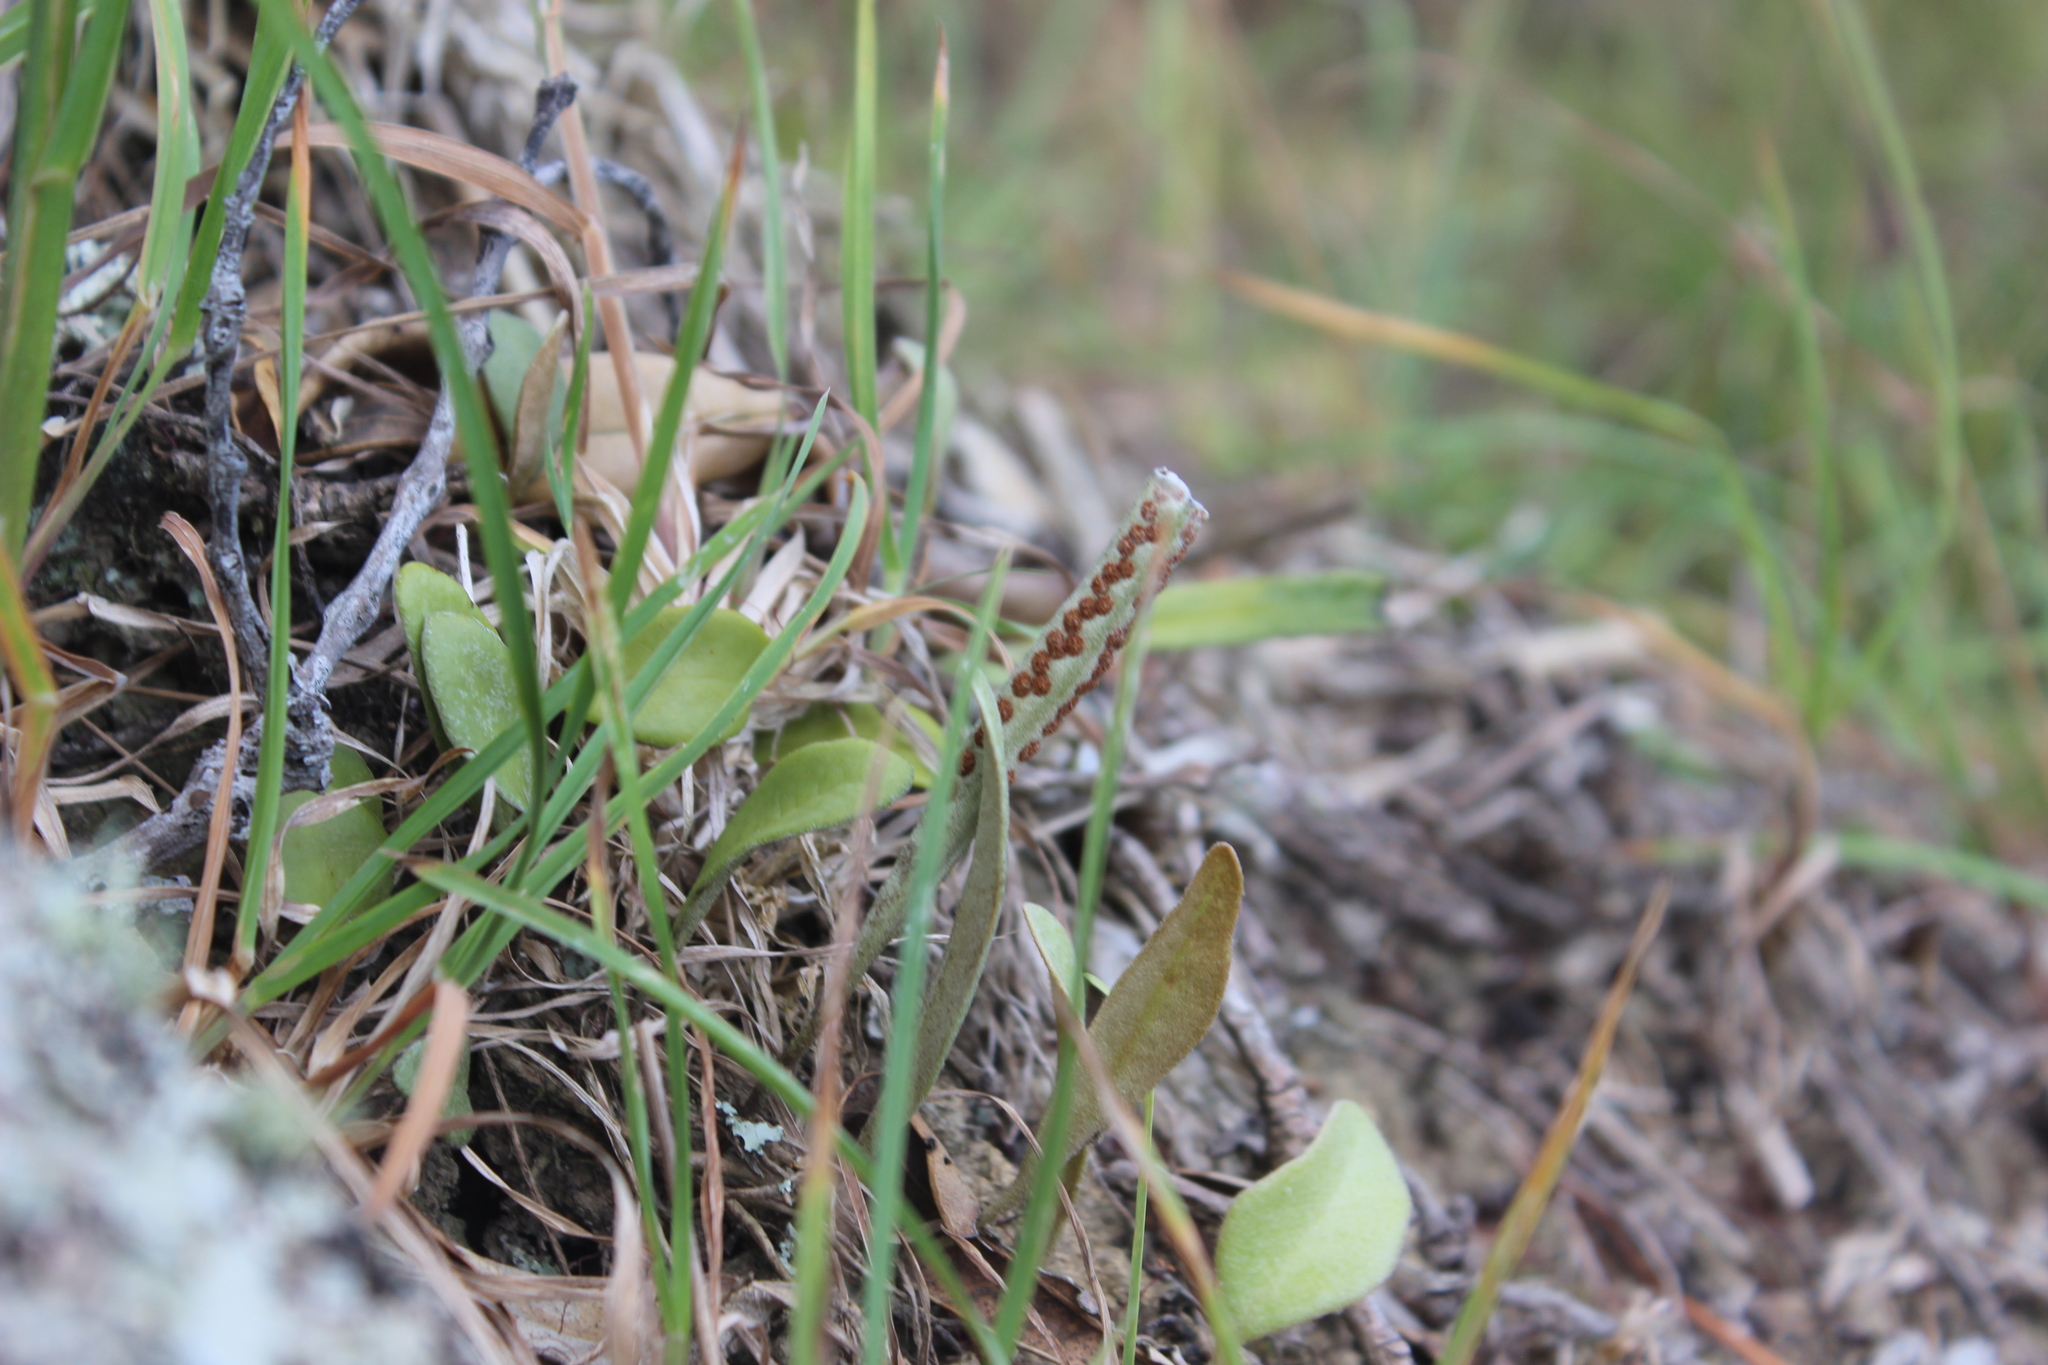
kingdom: Plantae
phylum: Tracheophyta
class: Polypodiopsida
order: Polypodiales
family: Polypodiaceae
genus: Pyrrosia
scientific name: Pyrrosia eleagnifolia
